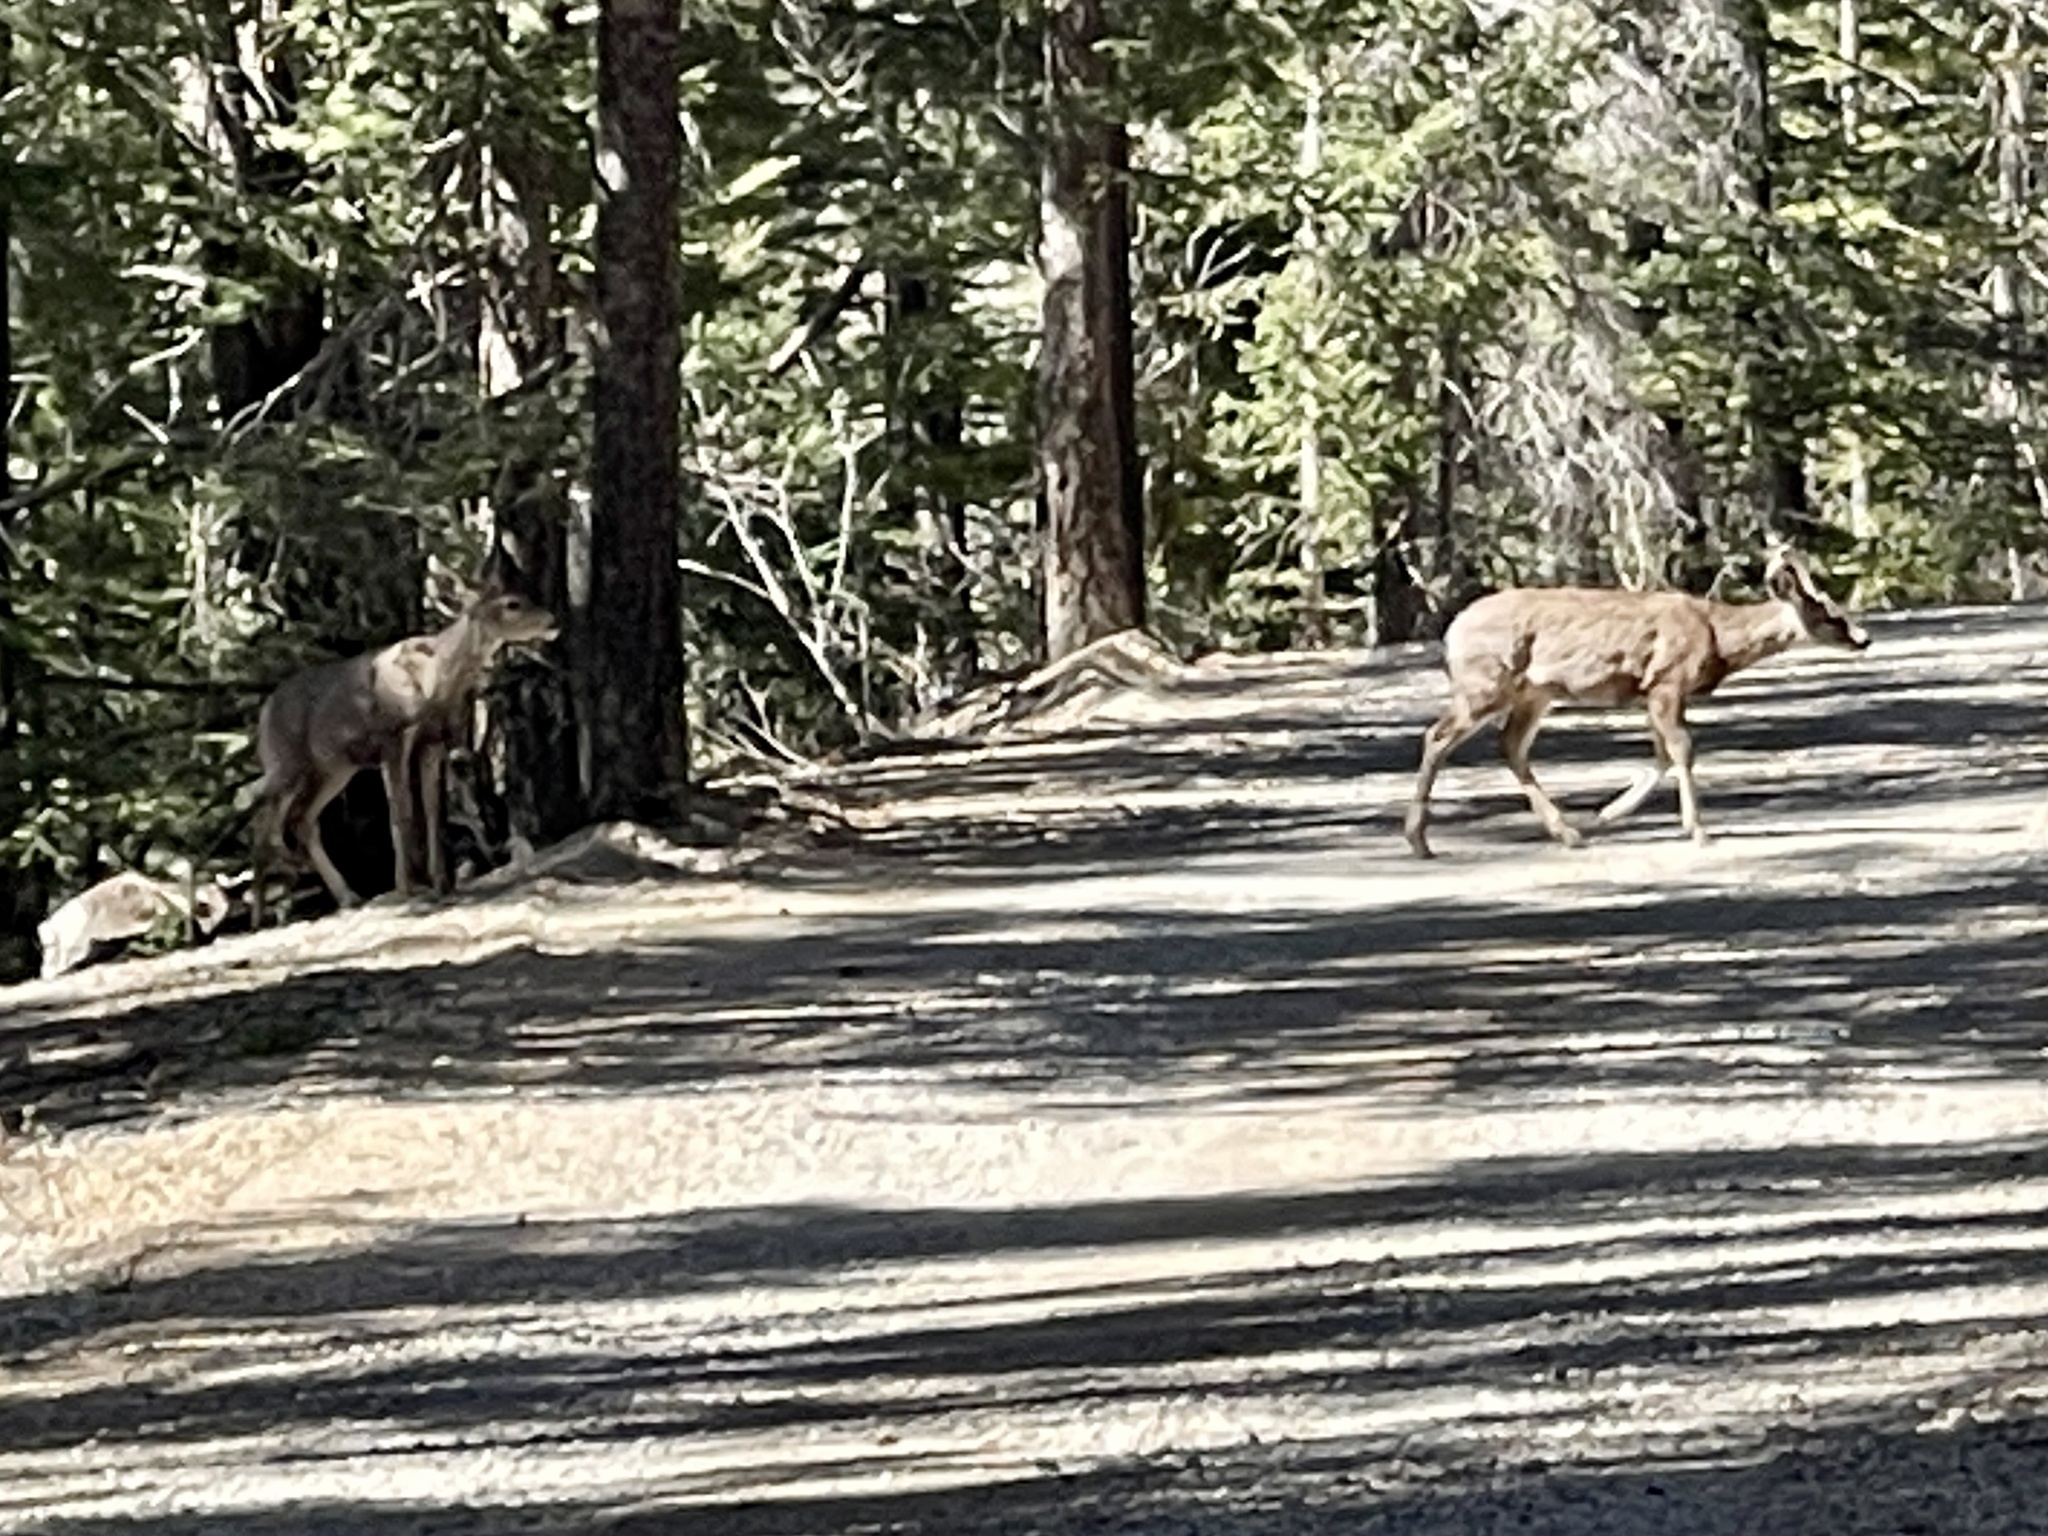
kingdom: Animalia
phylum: Chordata
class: Mammalia
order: Artiodactyla
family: Cervidae
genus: Odocoileus
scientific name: Odocoileus hemionus
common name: Mule deer
